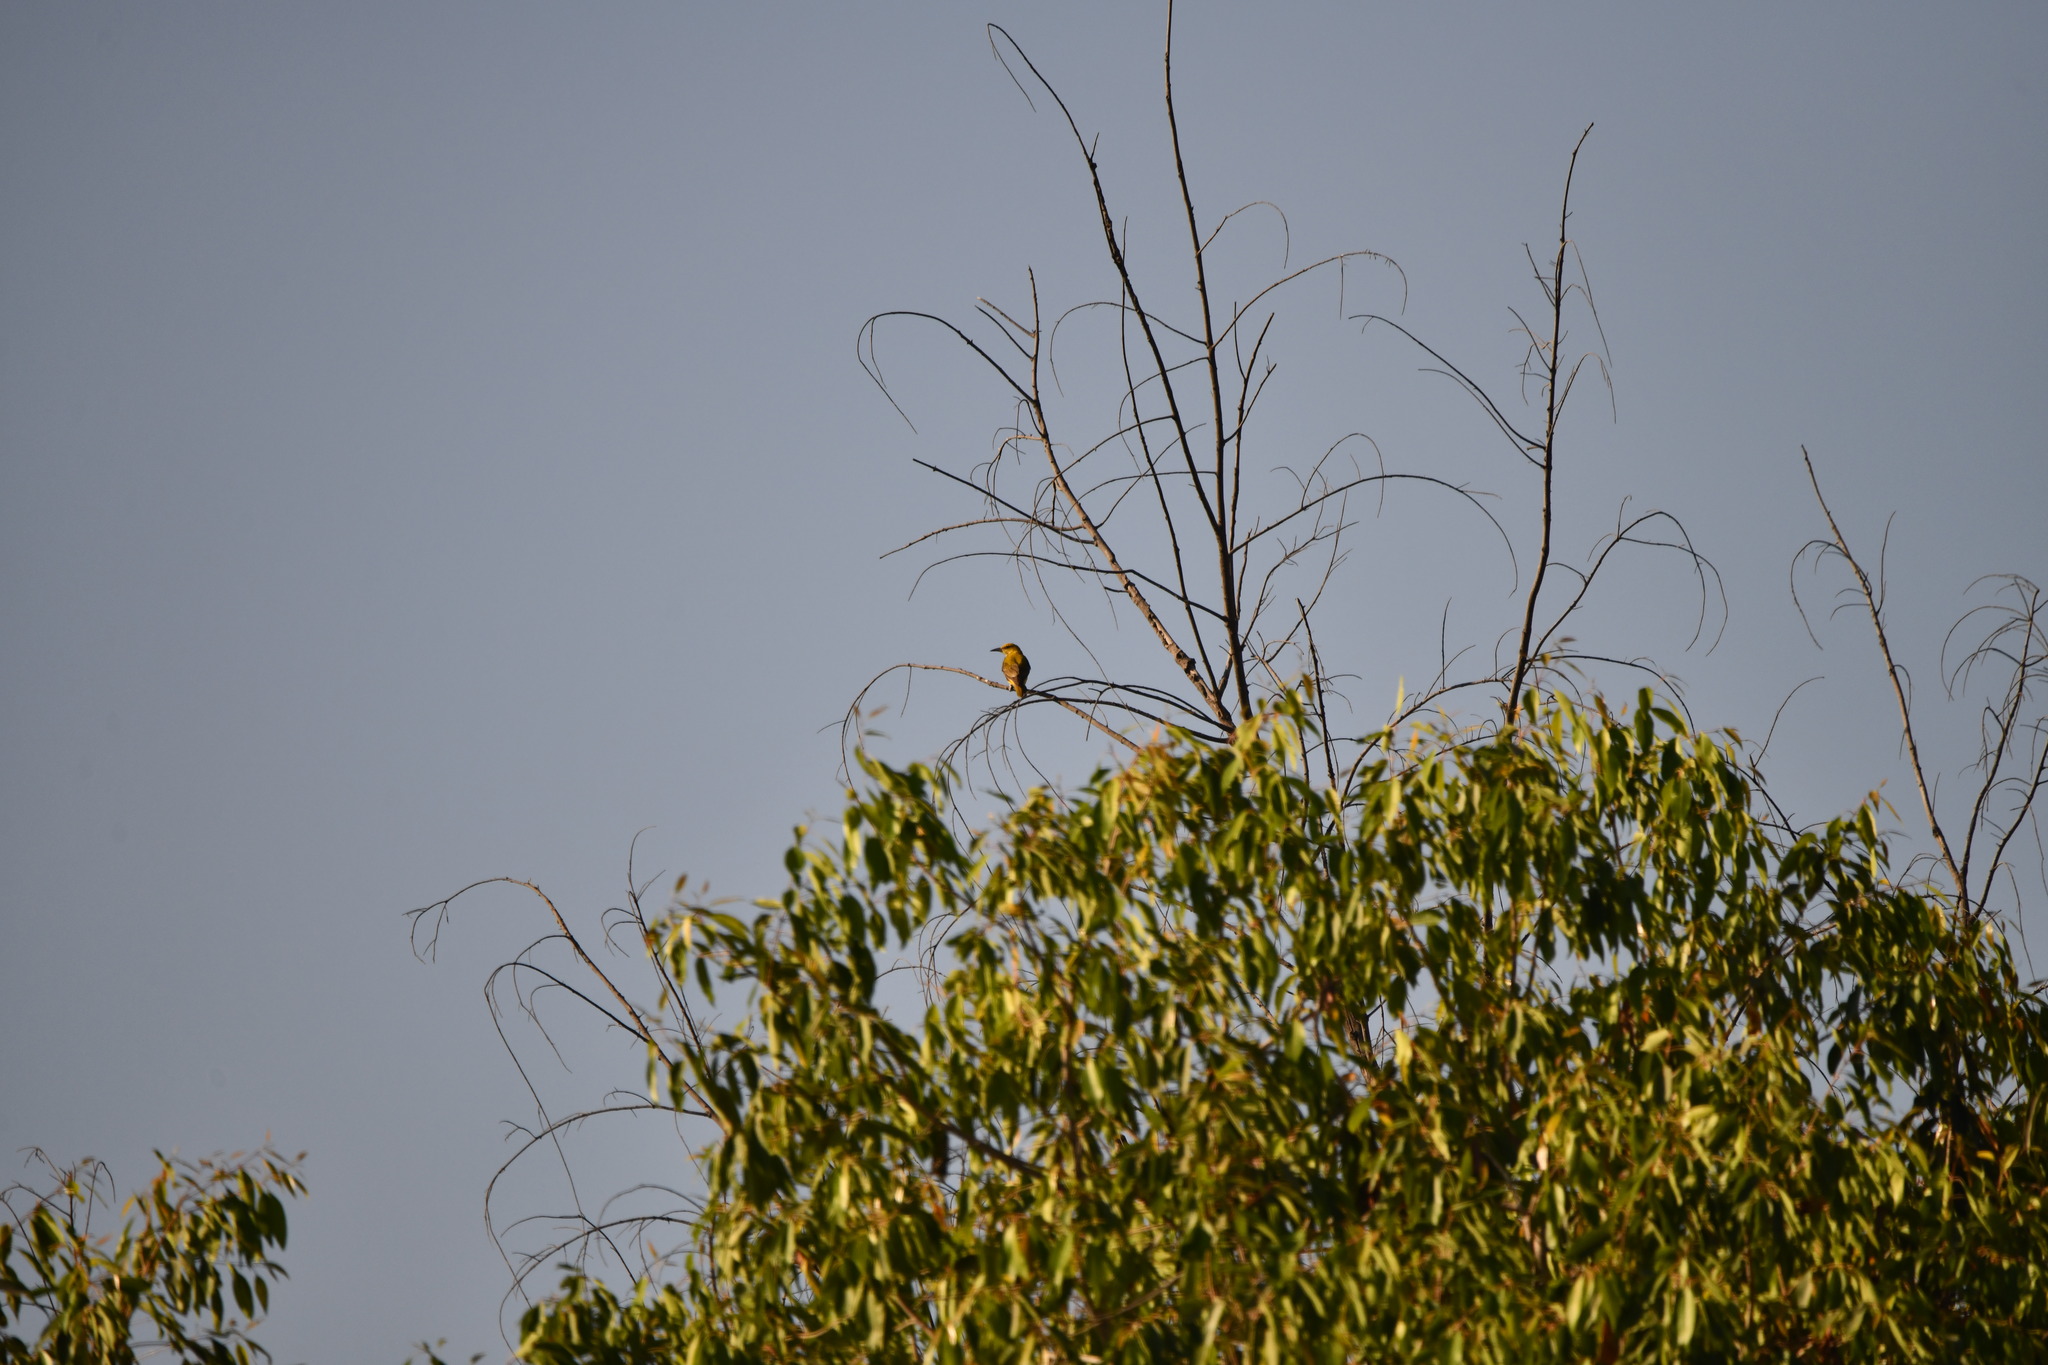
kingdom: Animalia
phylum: Chordata
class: Aves
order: Passeriformes
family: Oriolidae
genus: Oriolus
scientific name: Oriolus kundoo
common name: Indian golden oriole
